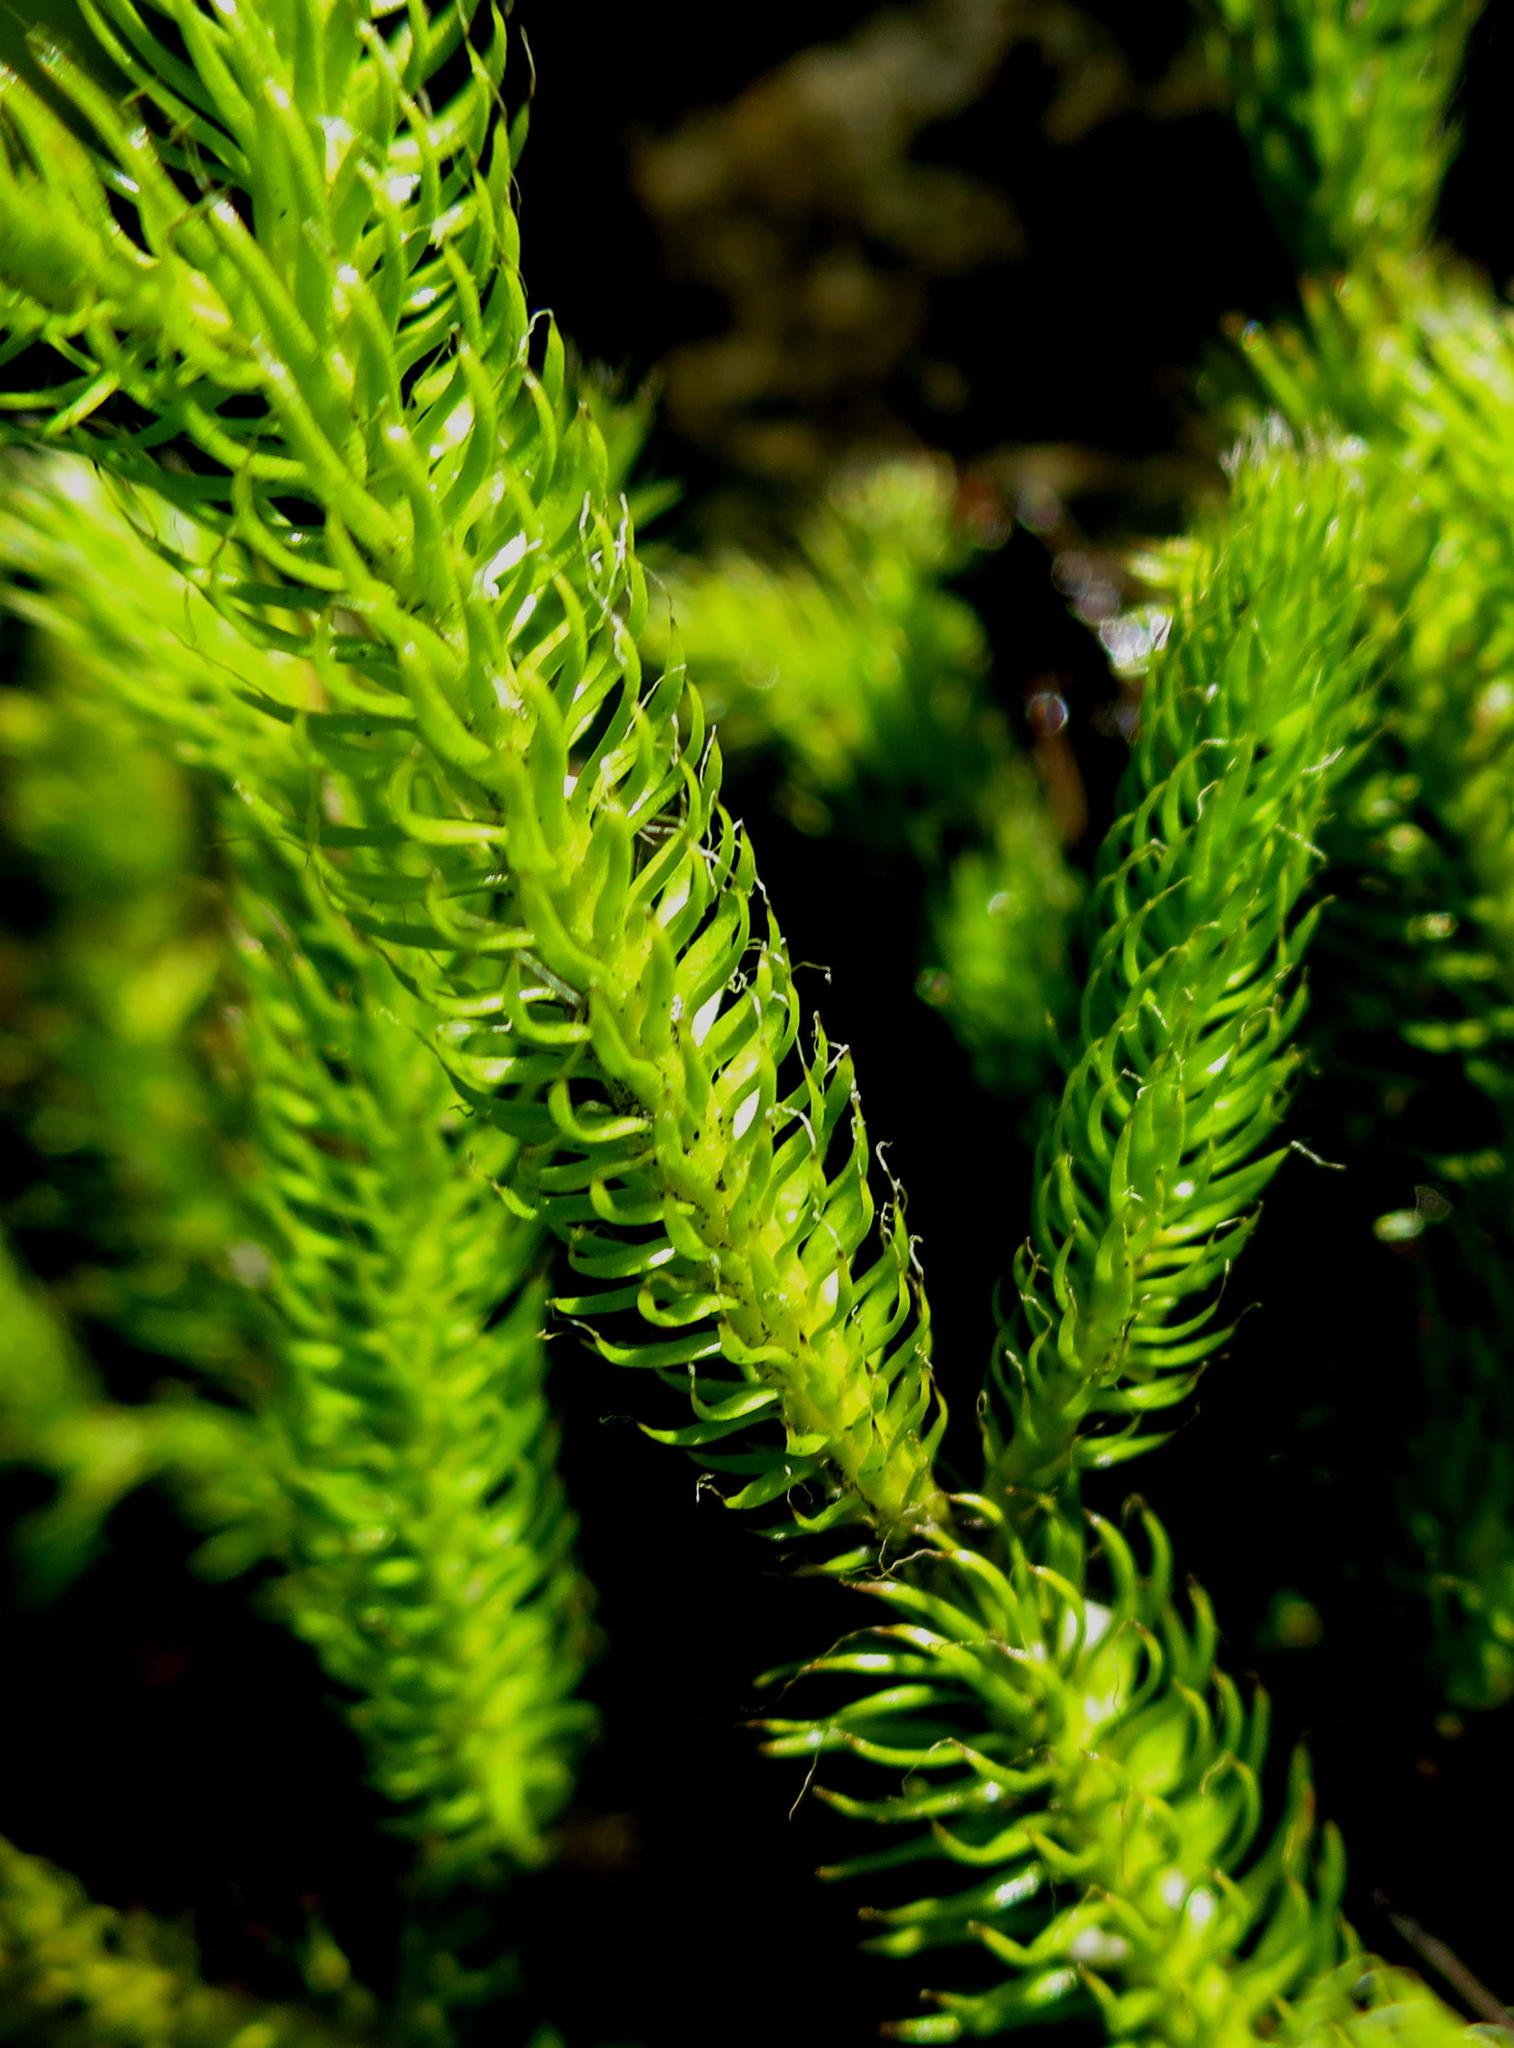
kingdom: Plantae
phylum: Tracheophyta
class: Lycopodiopsida
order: Lycopodiales
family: Lycopodiaceae
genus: Lycopodium
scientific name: Lycopodium clavatum
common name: Stag's-horn clubmoss
